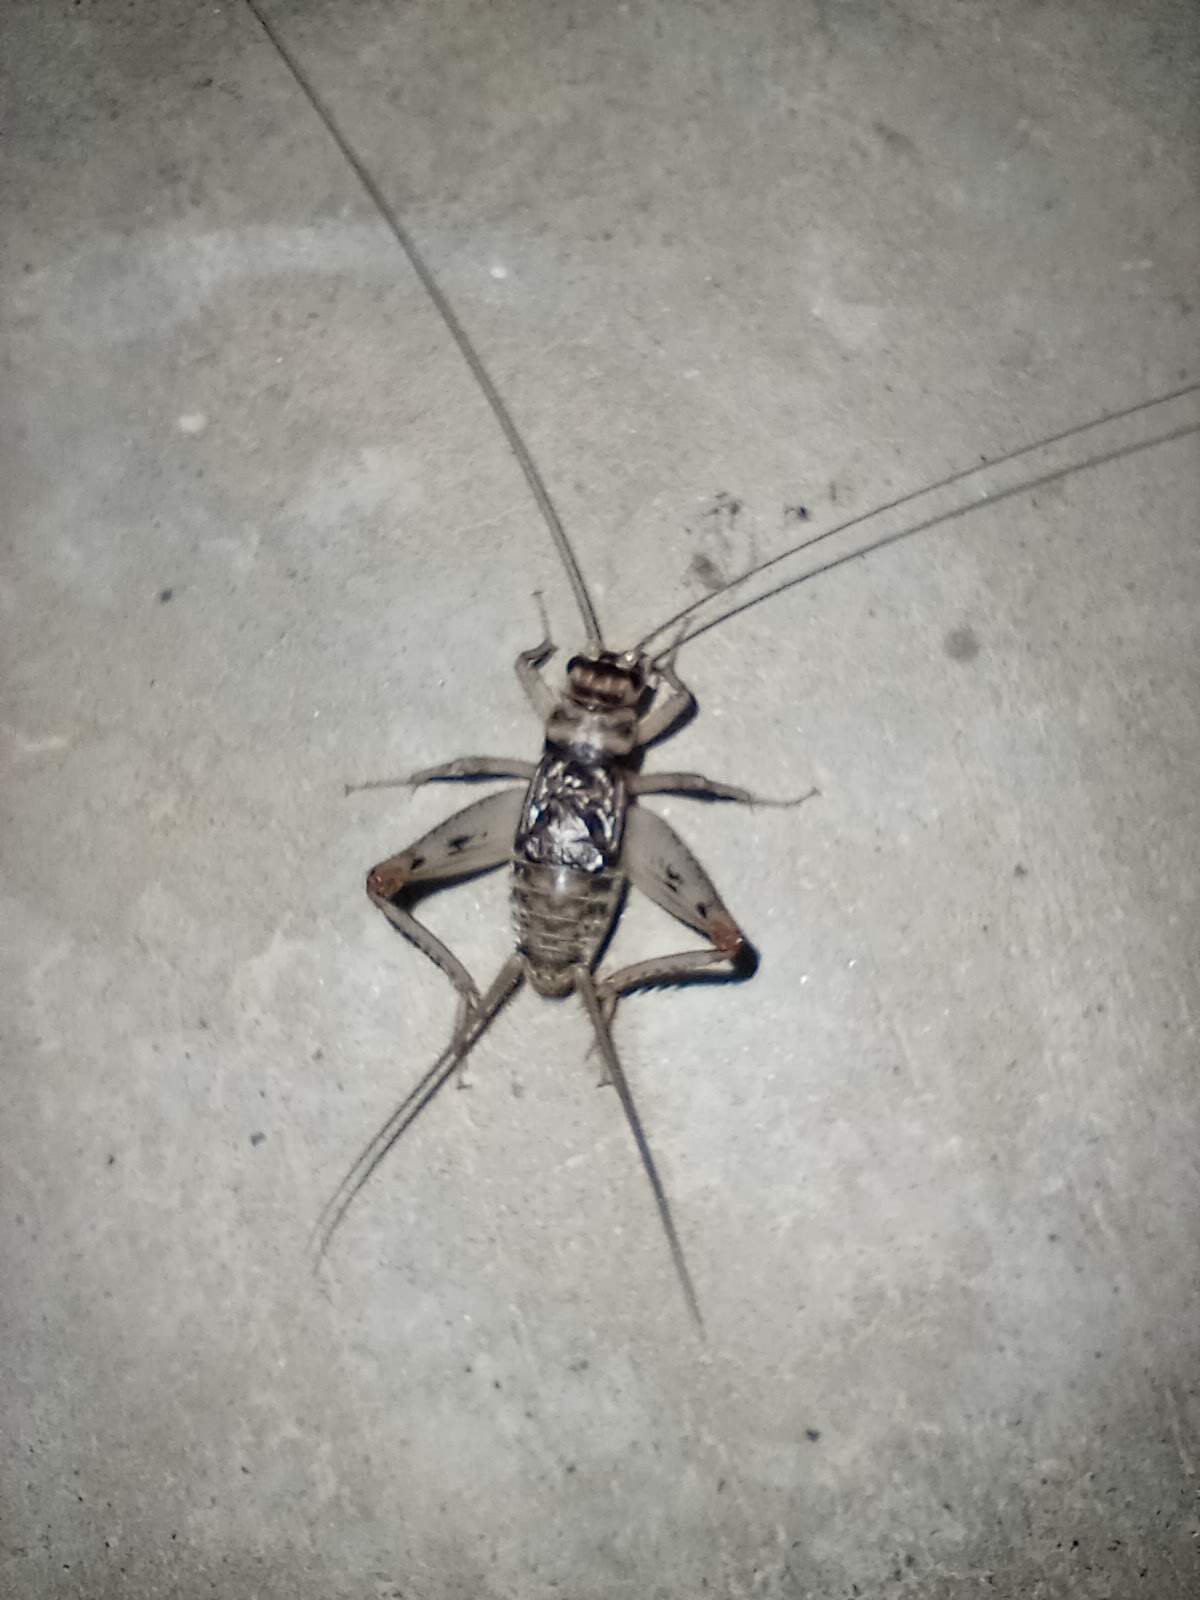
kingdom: Animalia
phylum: Arthropoda
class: Insecta
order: Orthoptera
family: Gryllidae
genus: Gryllodes
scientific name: Gryllodes sigillatus
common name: Tropical house cricket
